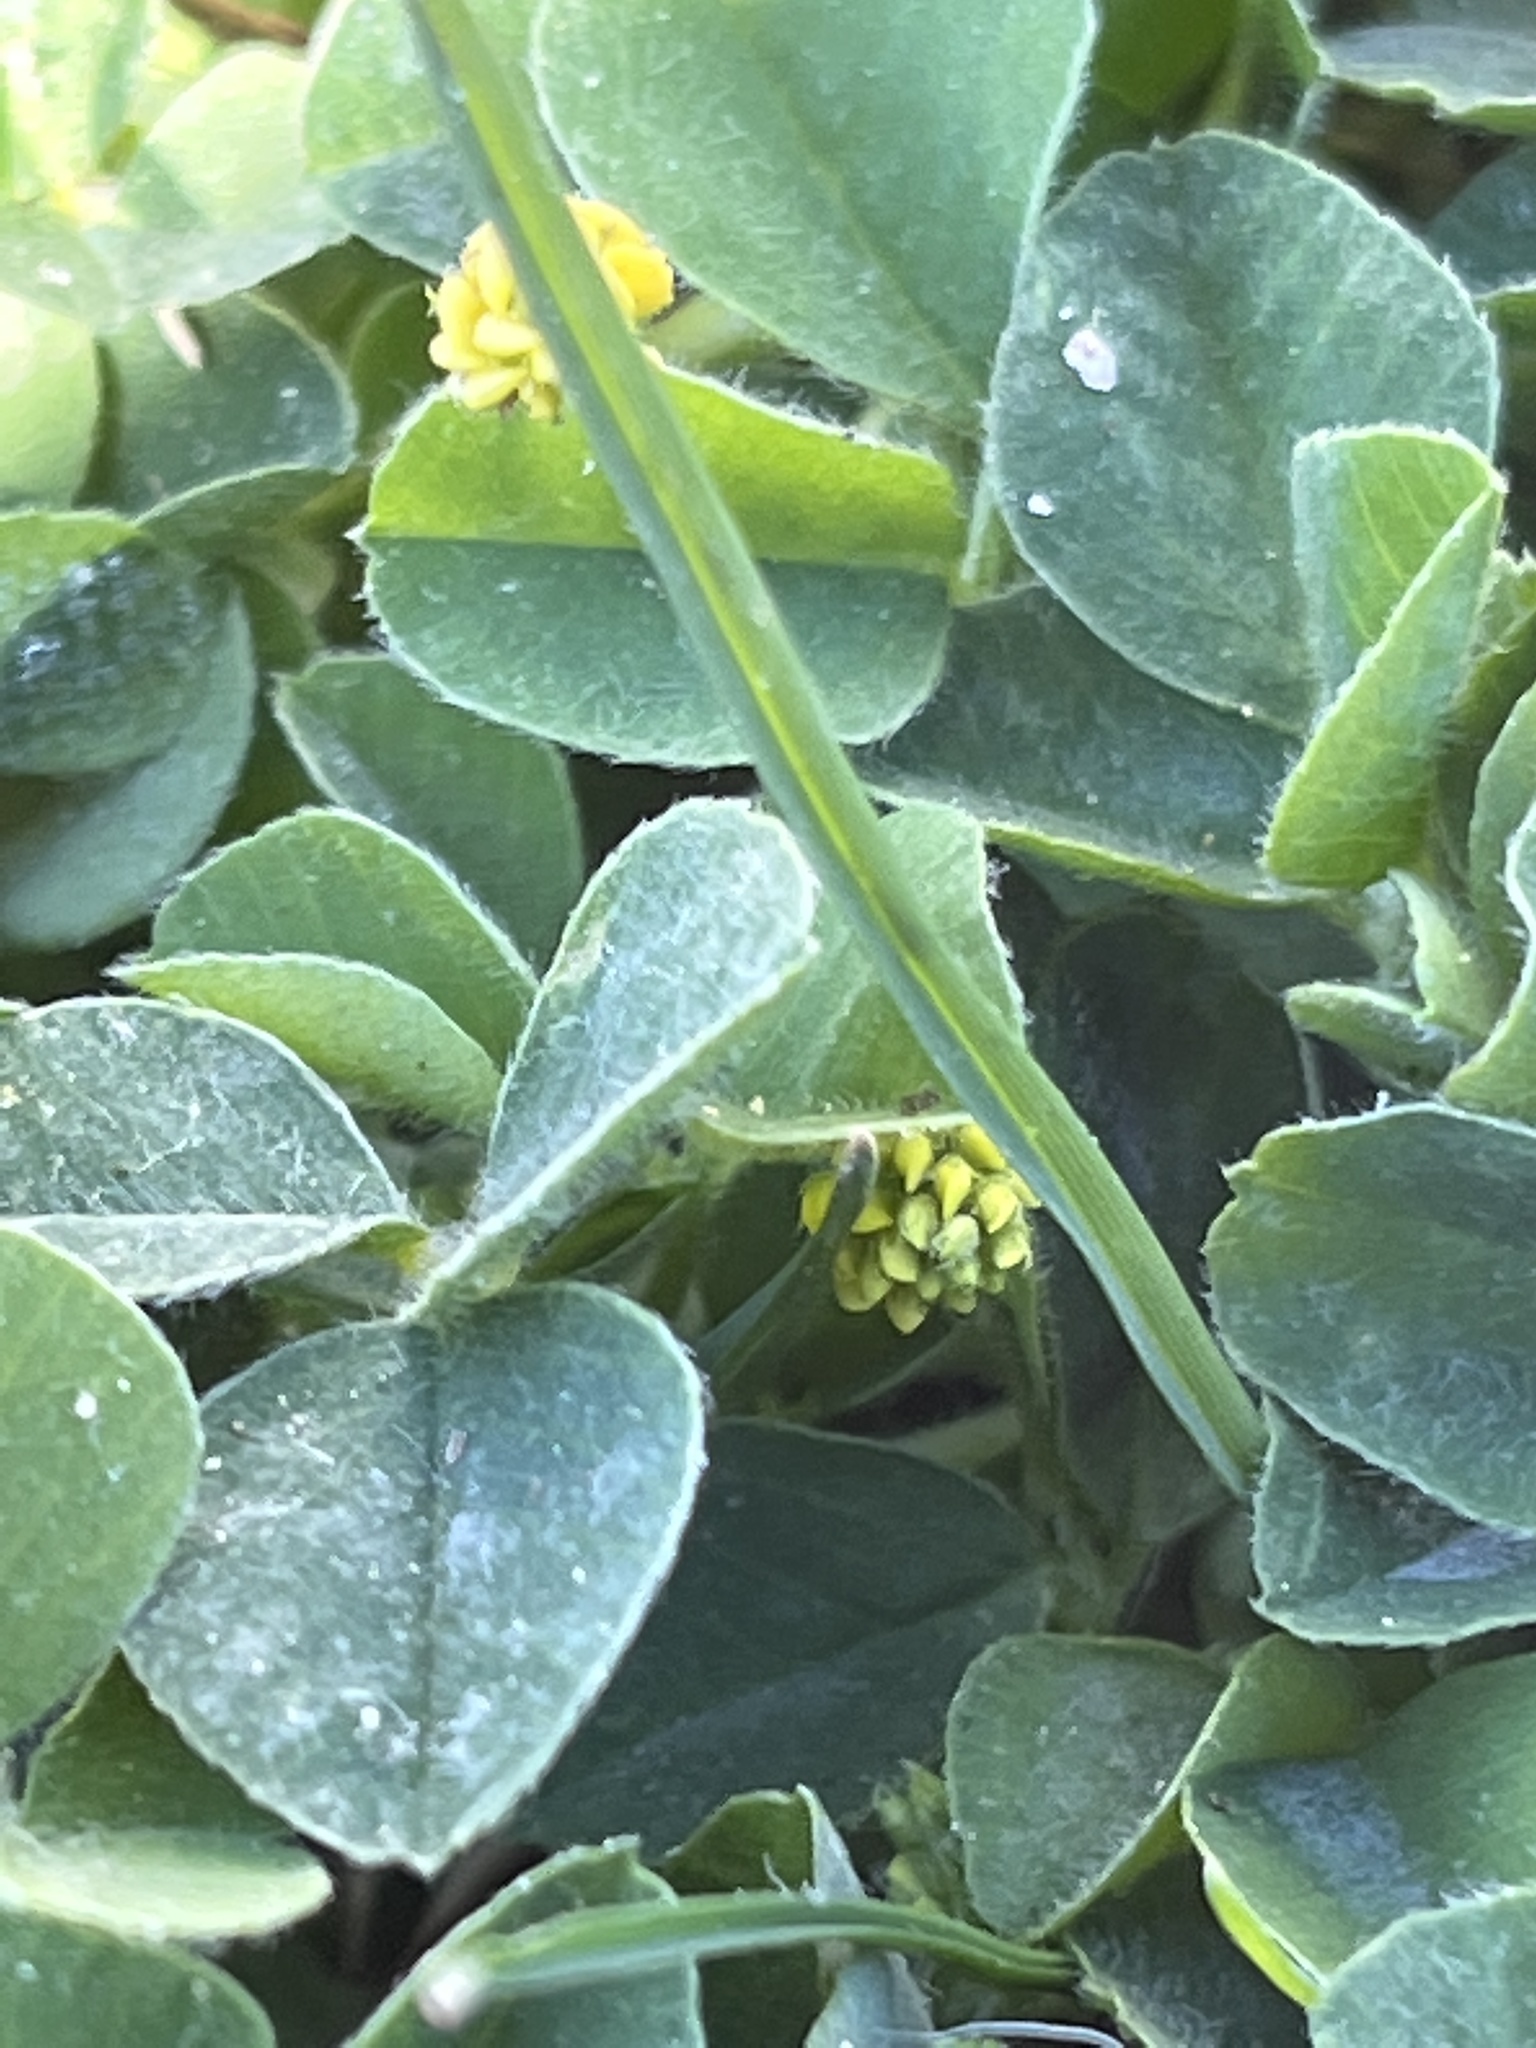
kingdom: Plantae
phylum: Tracheophyta
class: Magnoliopsida
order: Fabales
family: Fabaceae
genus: Medicago
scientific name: Medicago lupulina
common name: Black medick
